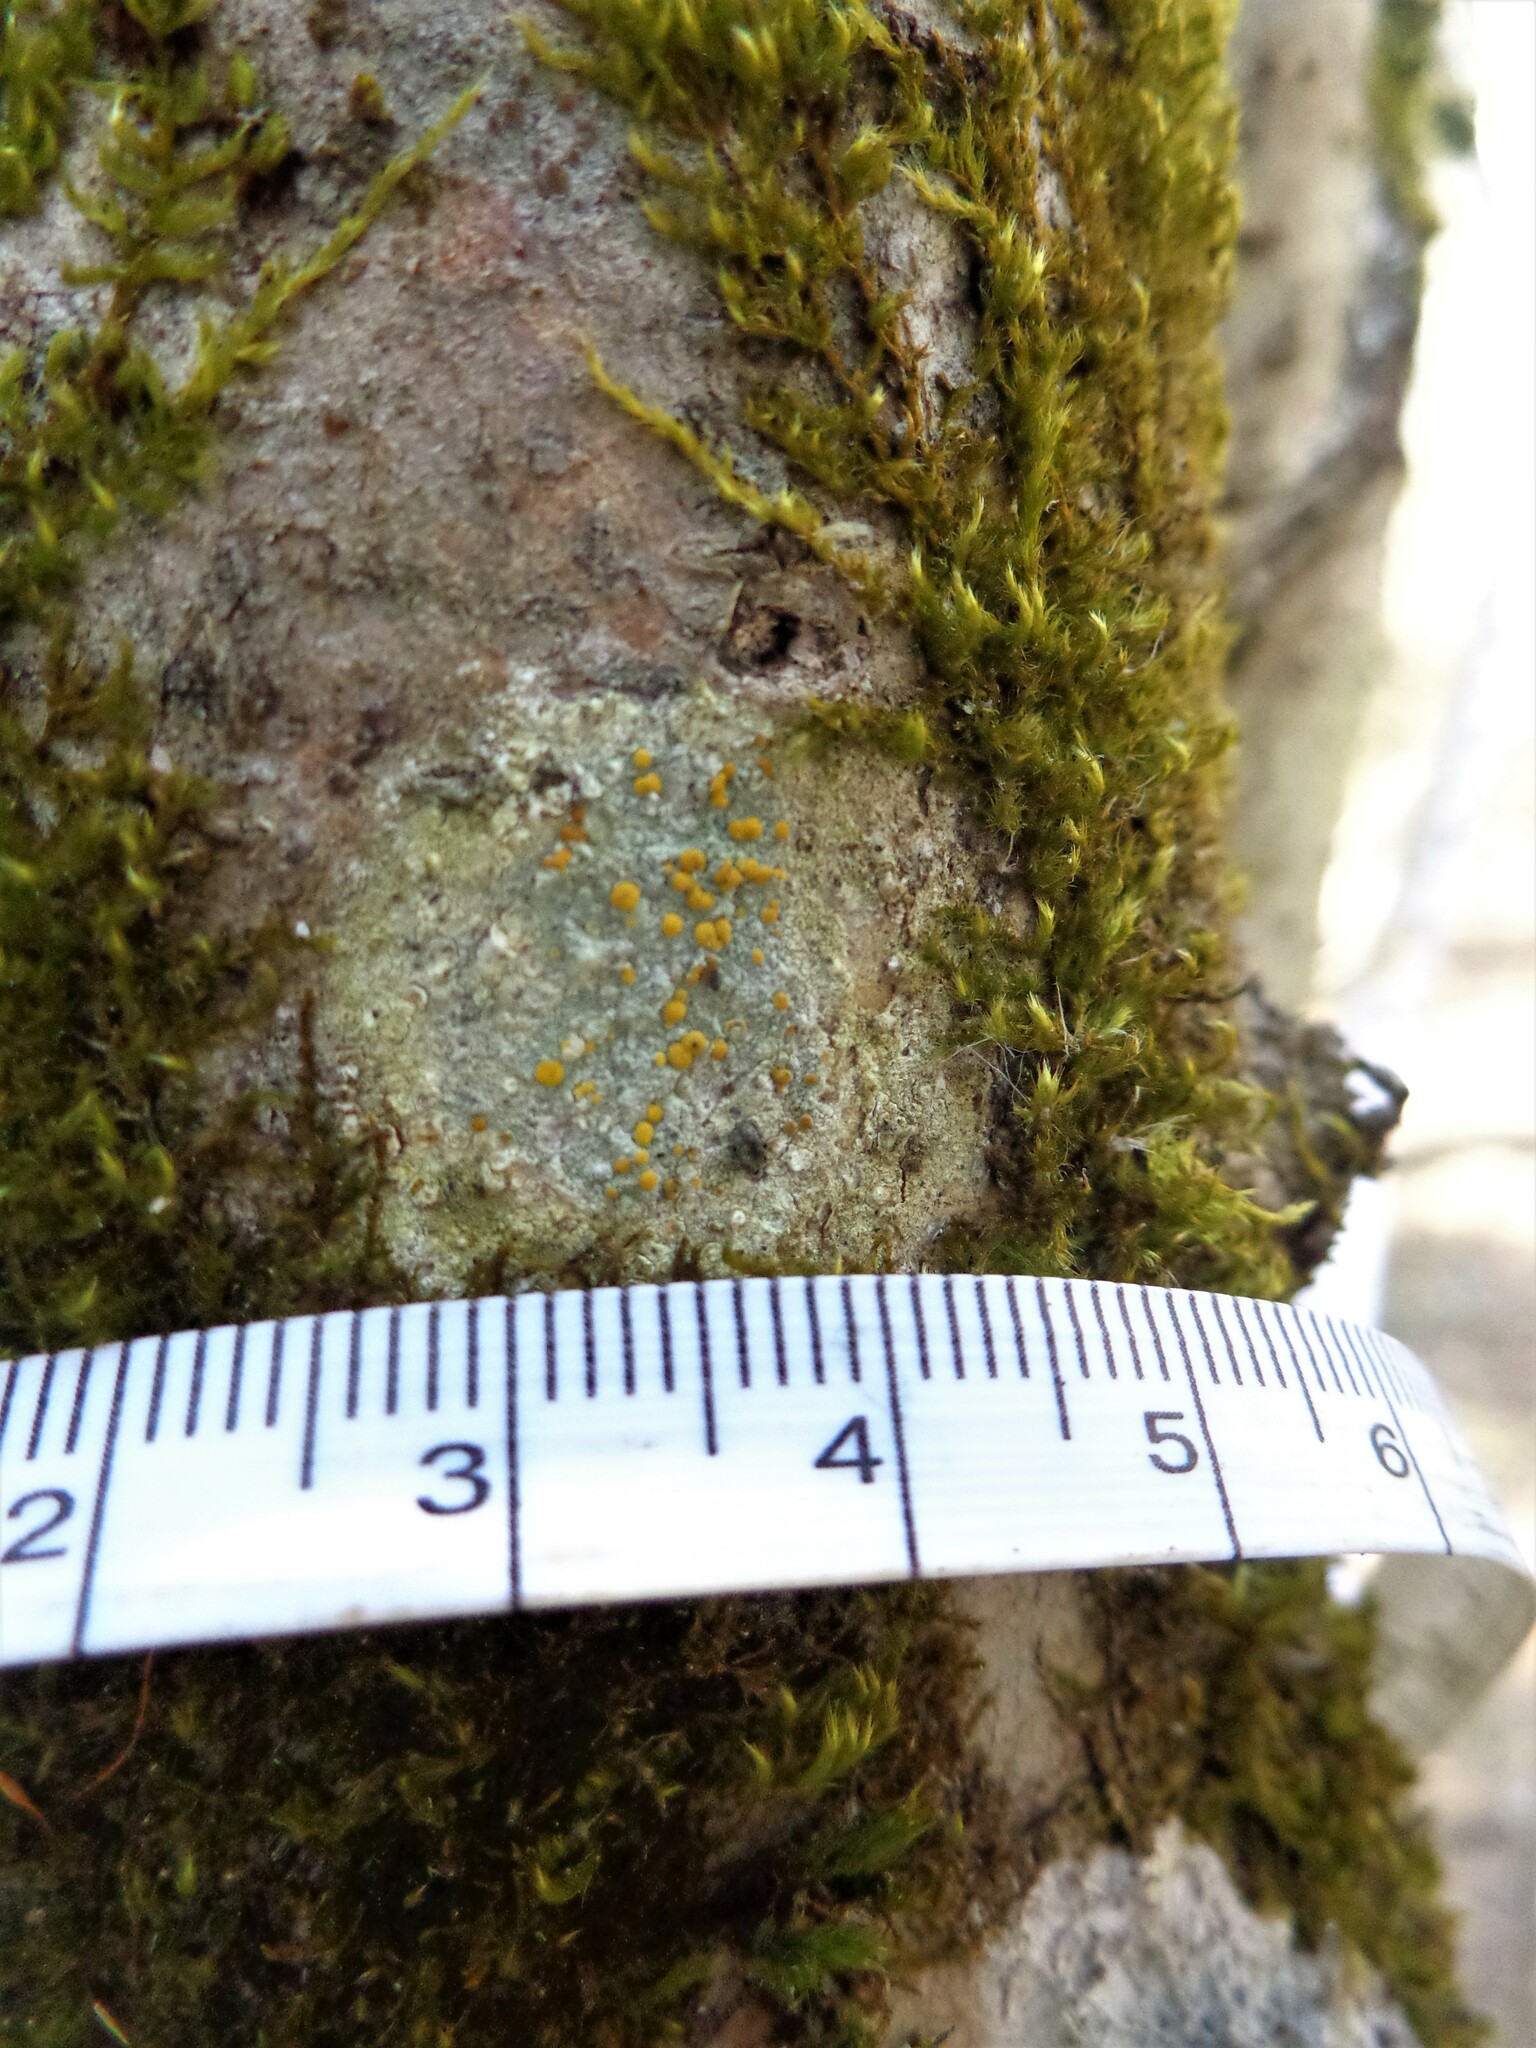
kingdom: Fungi
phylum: Ascomycota
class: Lecanoromycetes
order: Lecanorales
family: Lecanoraceae
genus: Lecanora
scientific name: Lecanora symmicta
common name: Fused rim lichen
